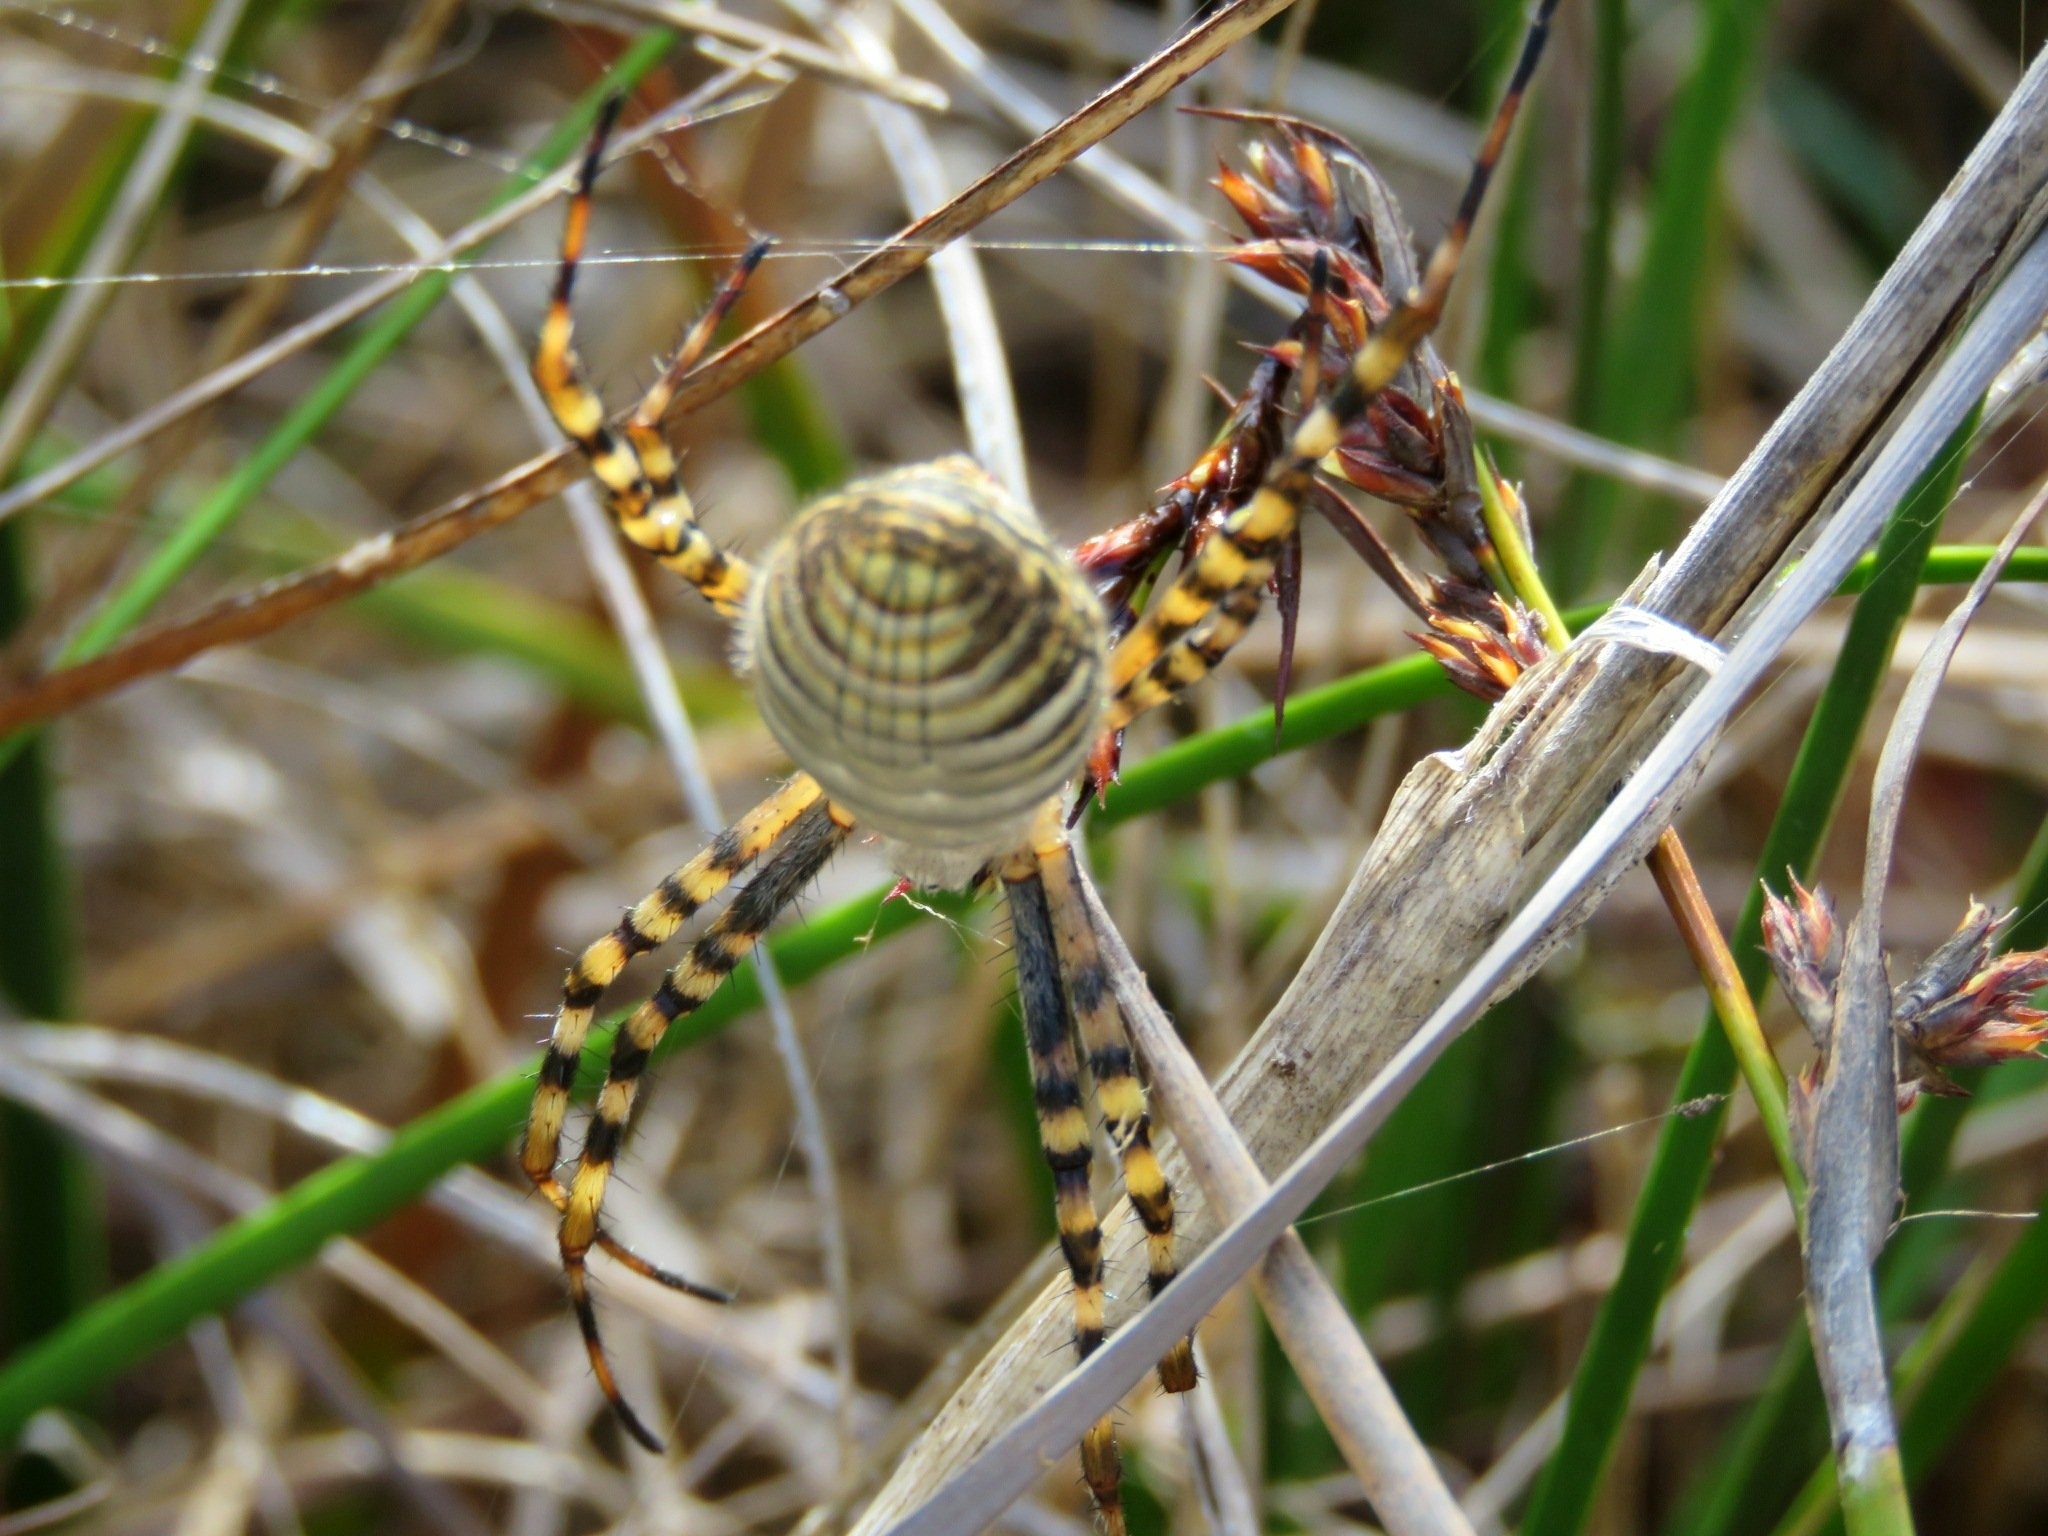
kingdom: Animalia
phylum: Arthropoda
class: Arachnida
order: Araneae
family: Araneidae
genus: Argiope
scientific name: Argiope trifasciata
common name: Banded garden spider
